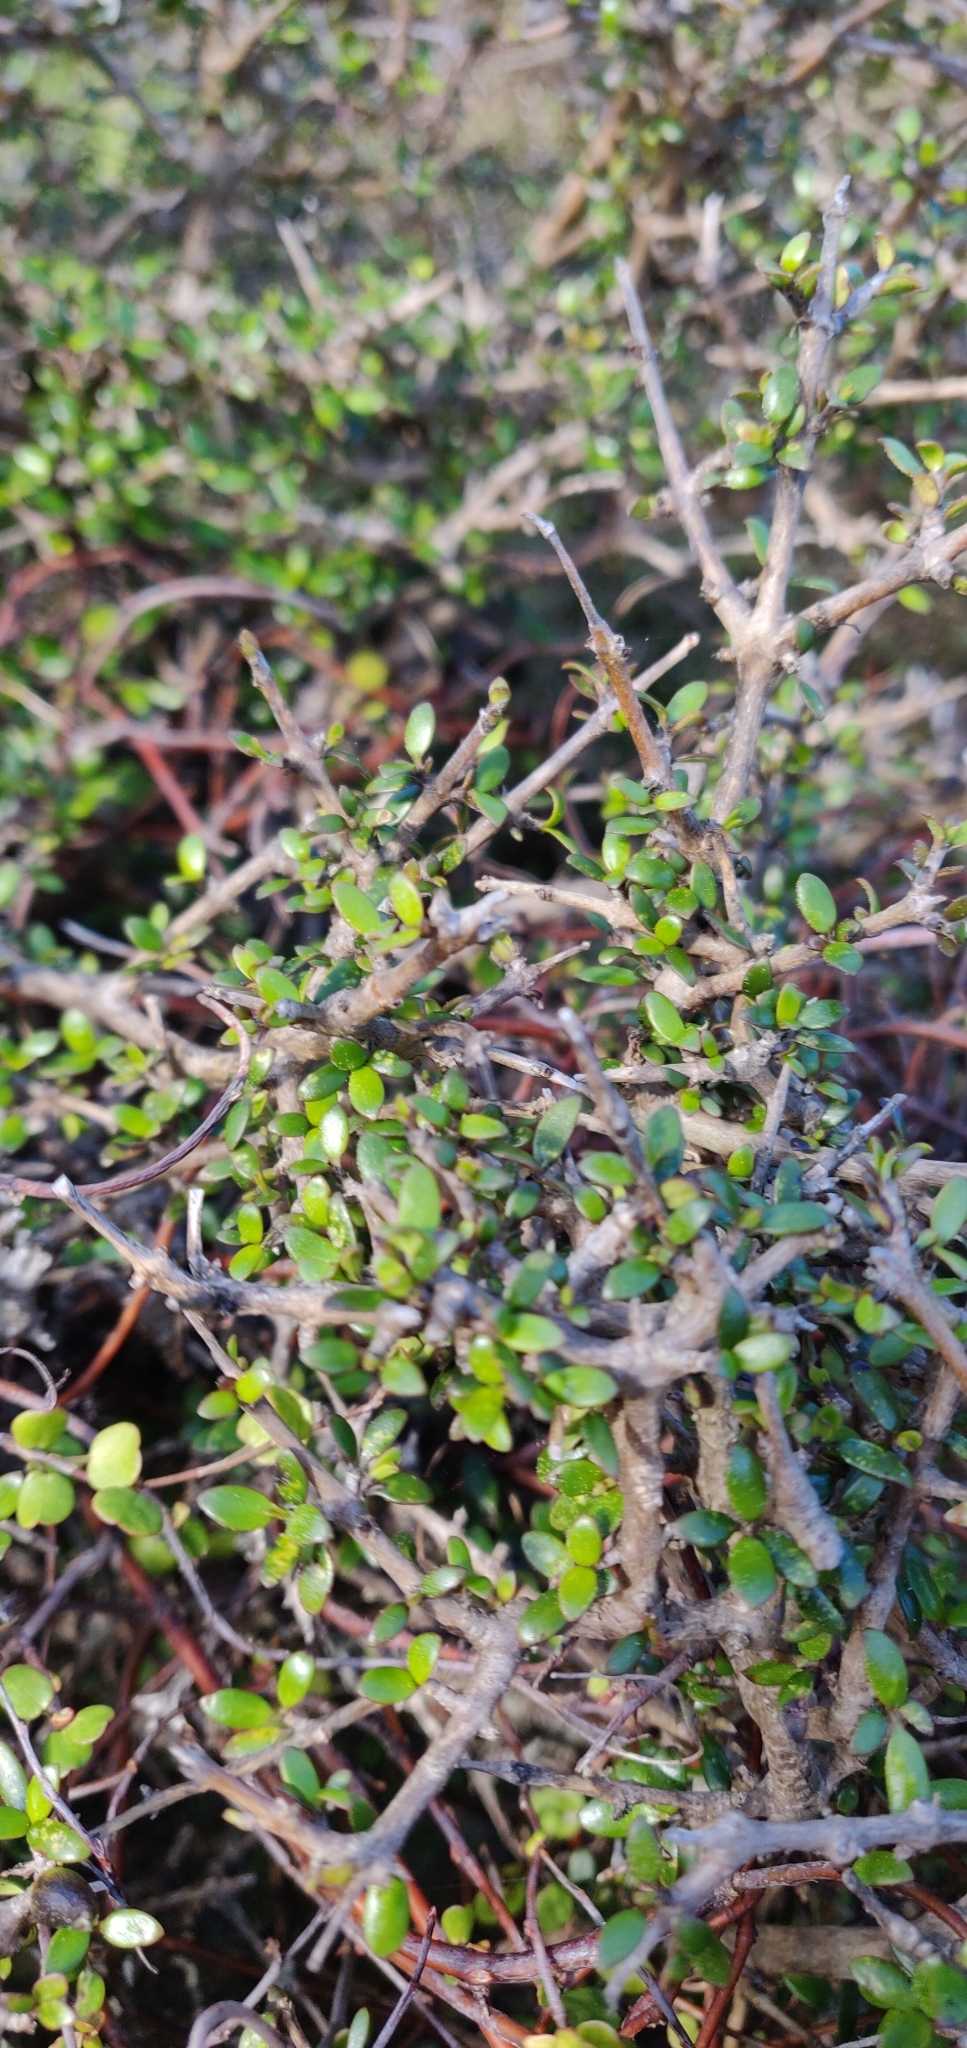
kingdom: Plantae
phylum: Tracheophyta
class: Magnoliopsida
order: Gentianales
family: Rubiaceae
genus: Coprosma
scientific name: Coprosma propinqua
